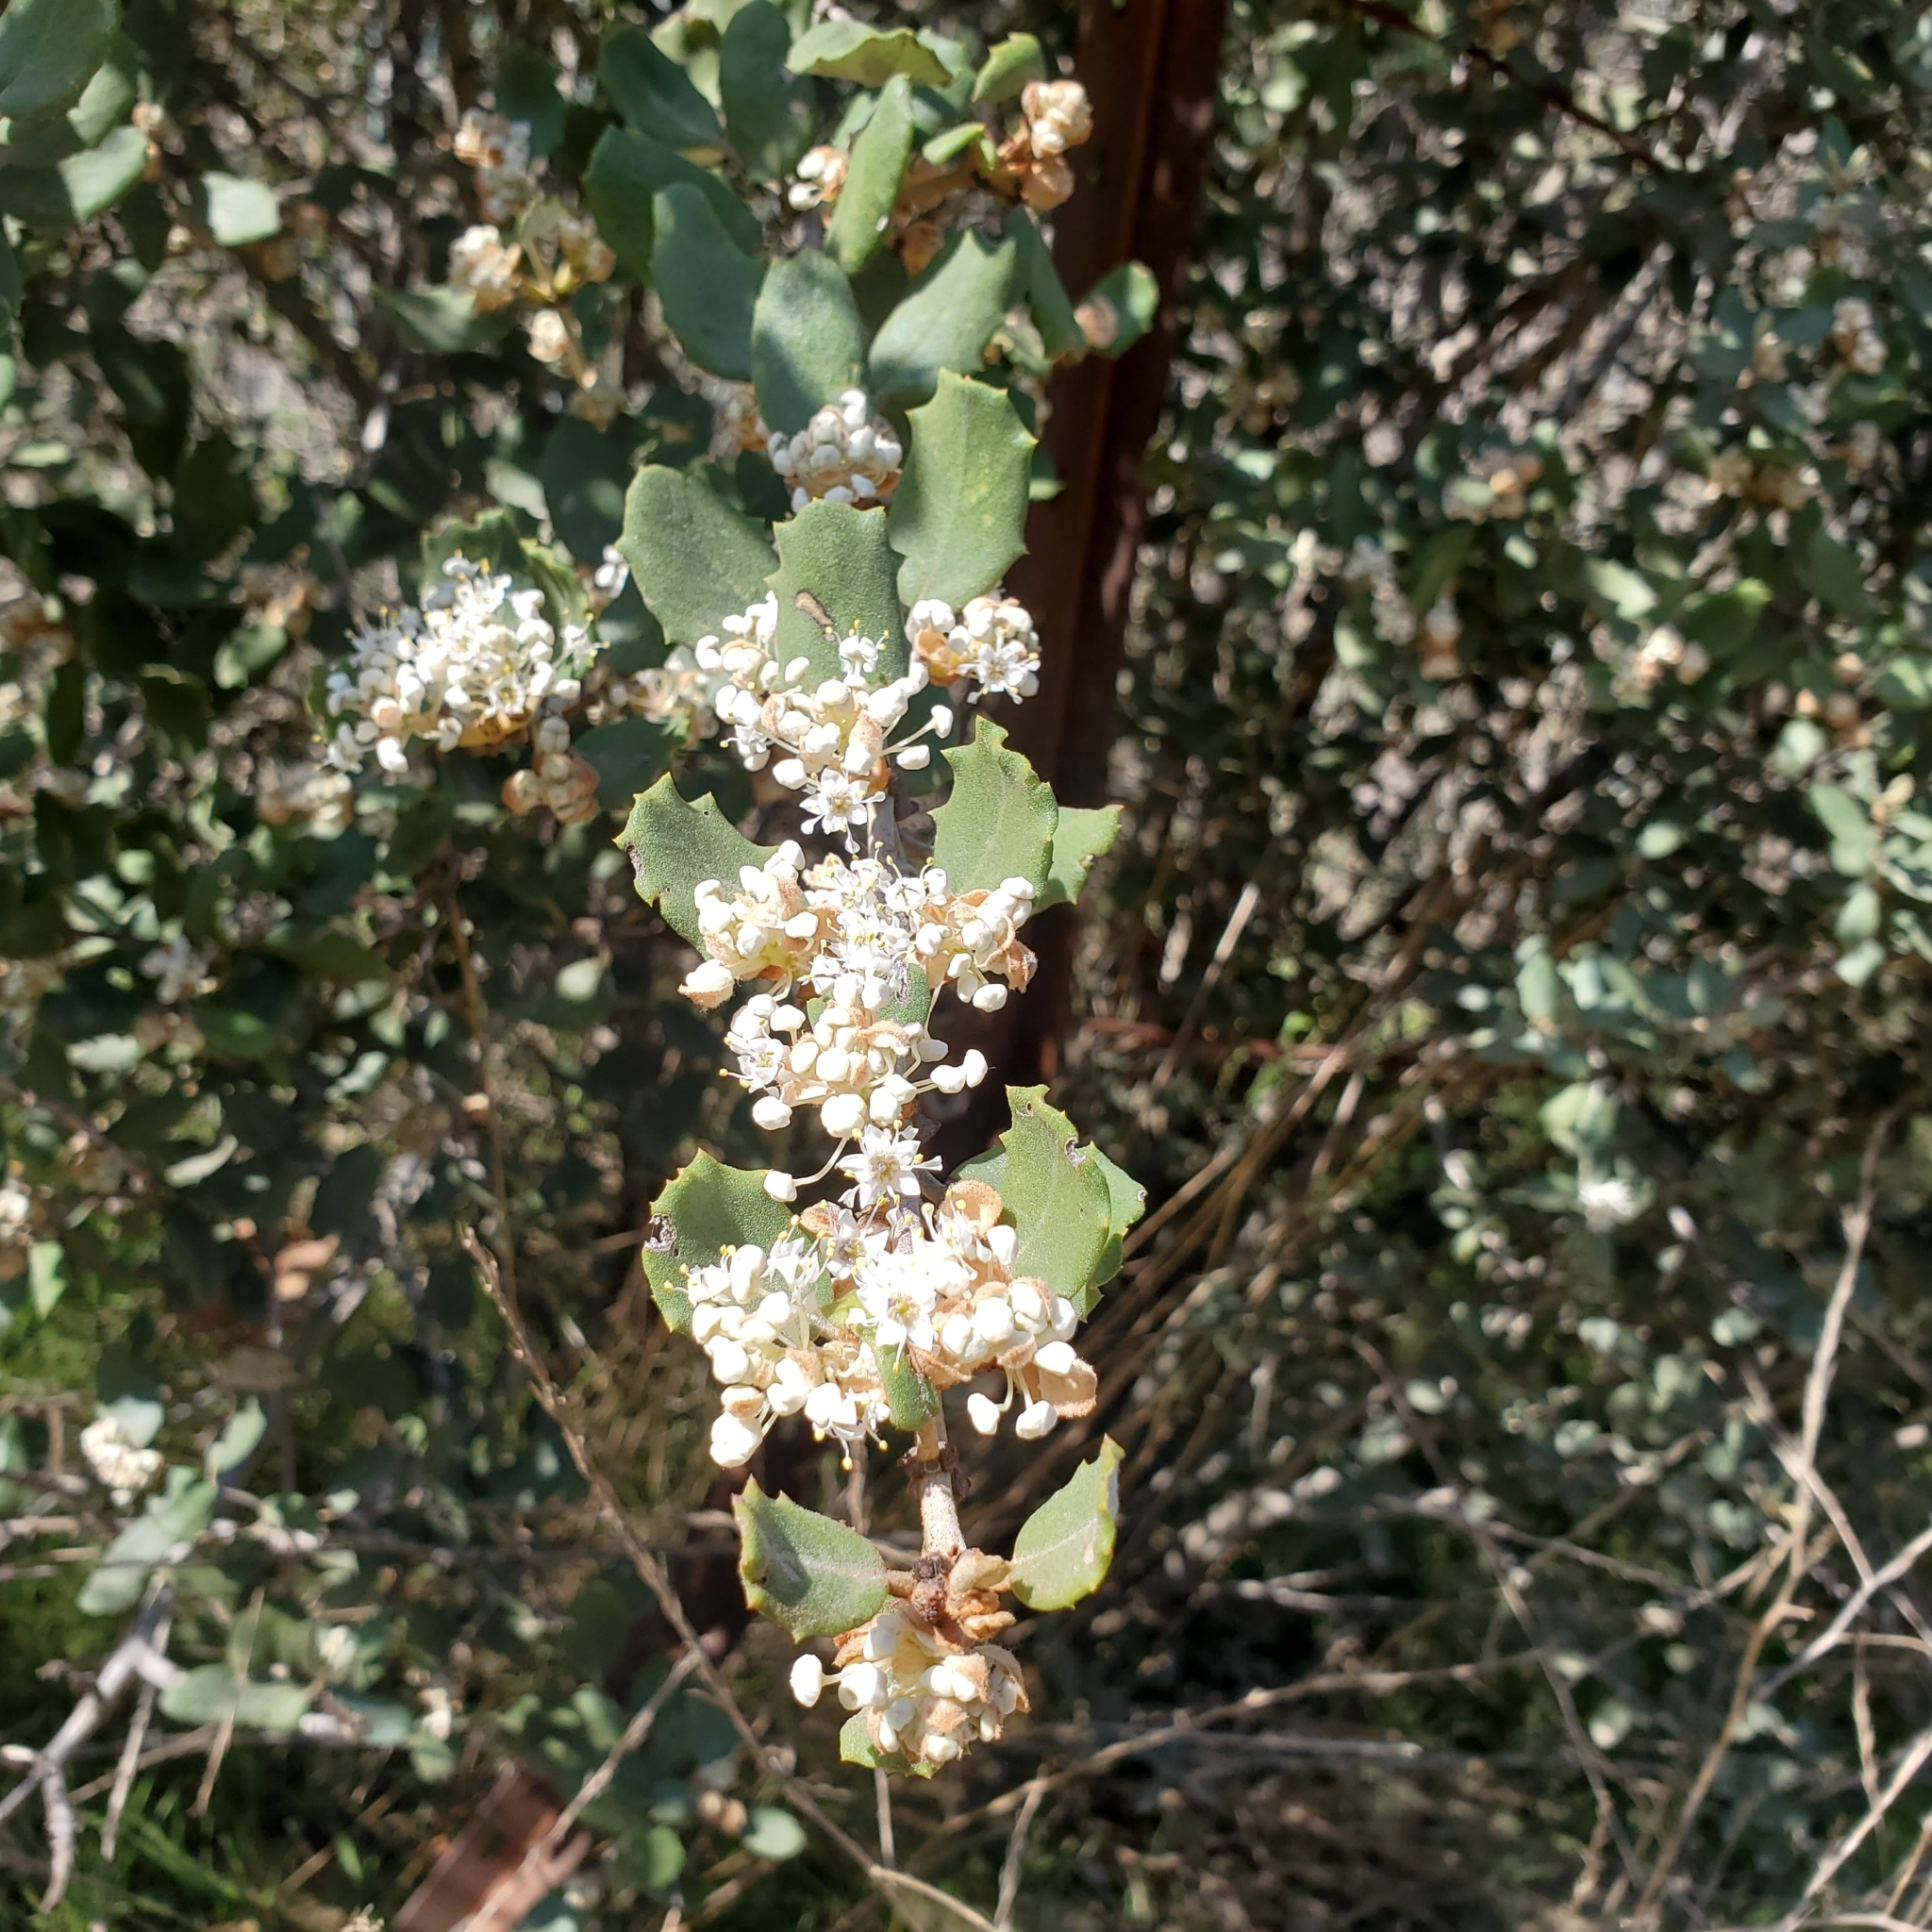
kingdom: Plantae
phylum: Tracheophyta
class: Magnoliopsida
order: Rosales
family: Rhamnaceae
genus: Ceanothus
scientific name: Ceanothus crassifolius
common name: Hoaryleaf ceanothus
